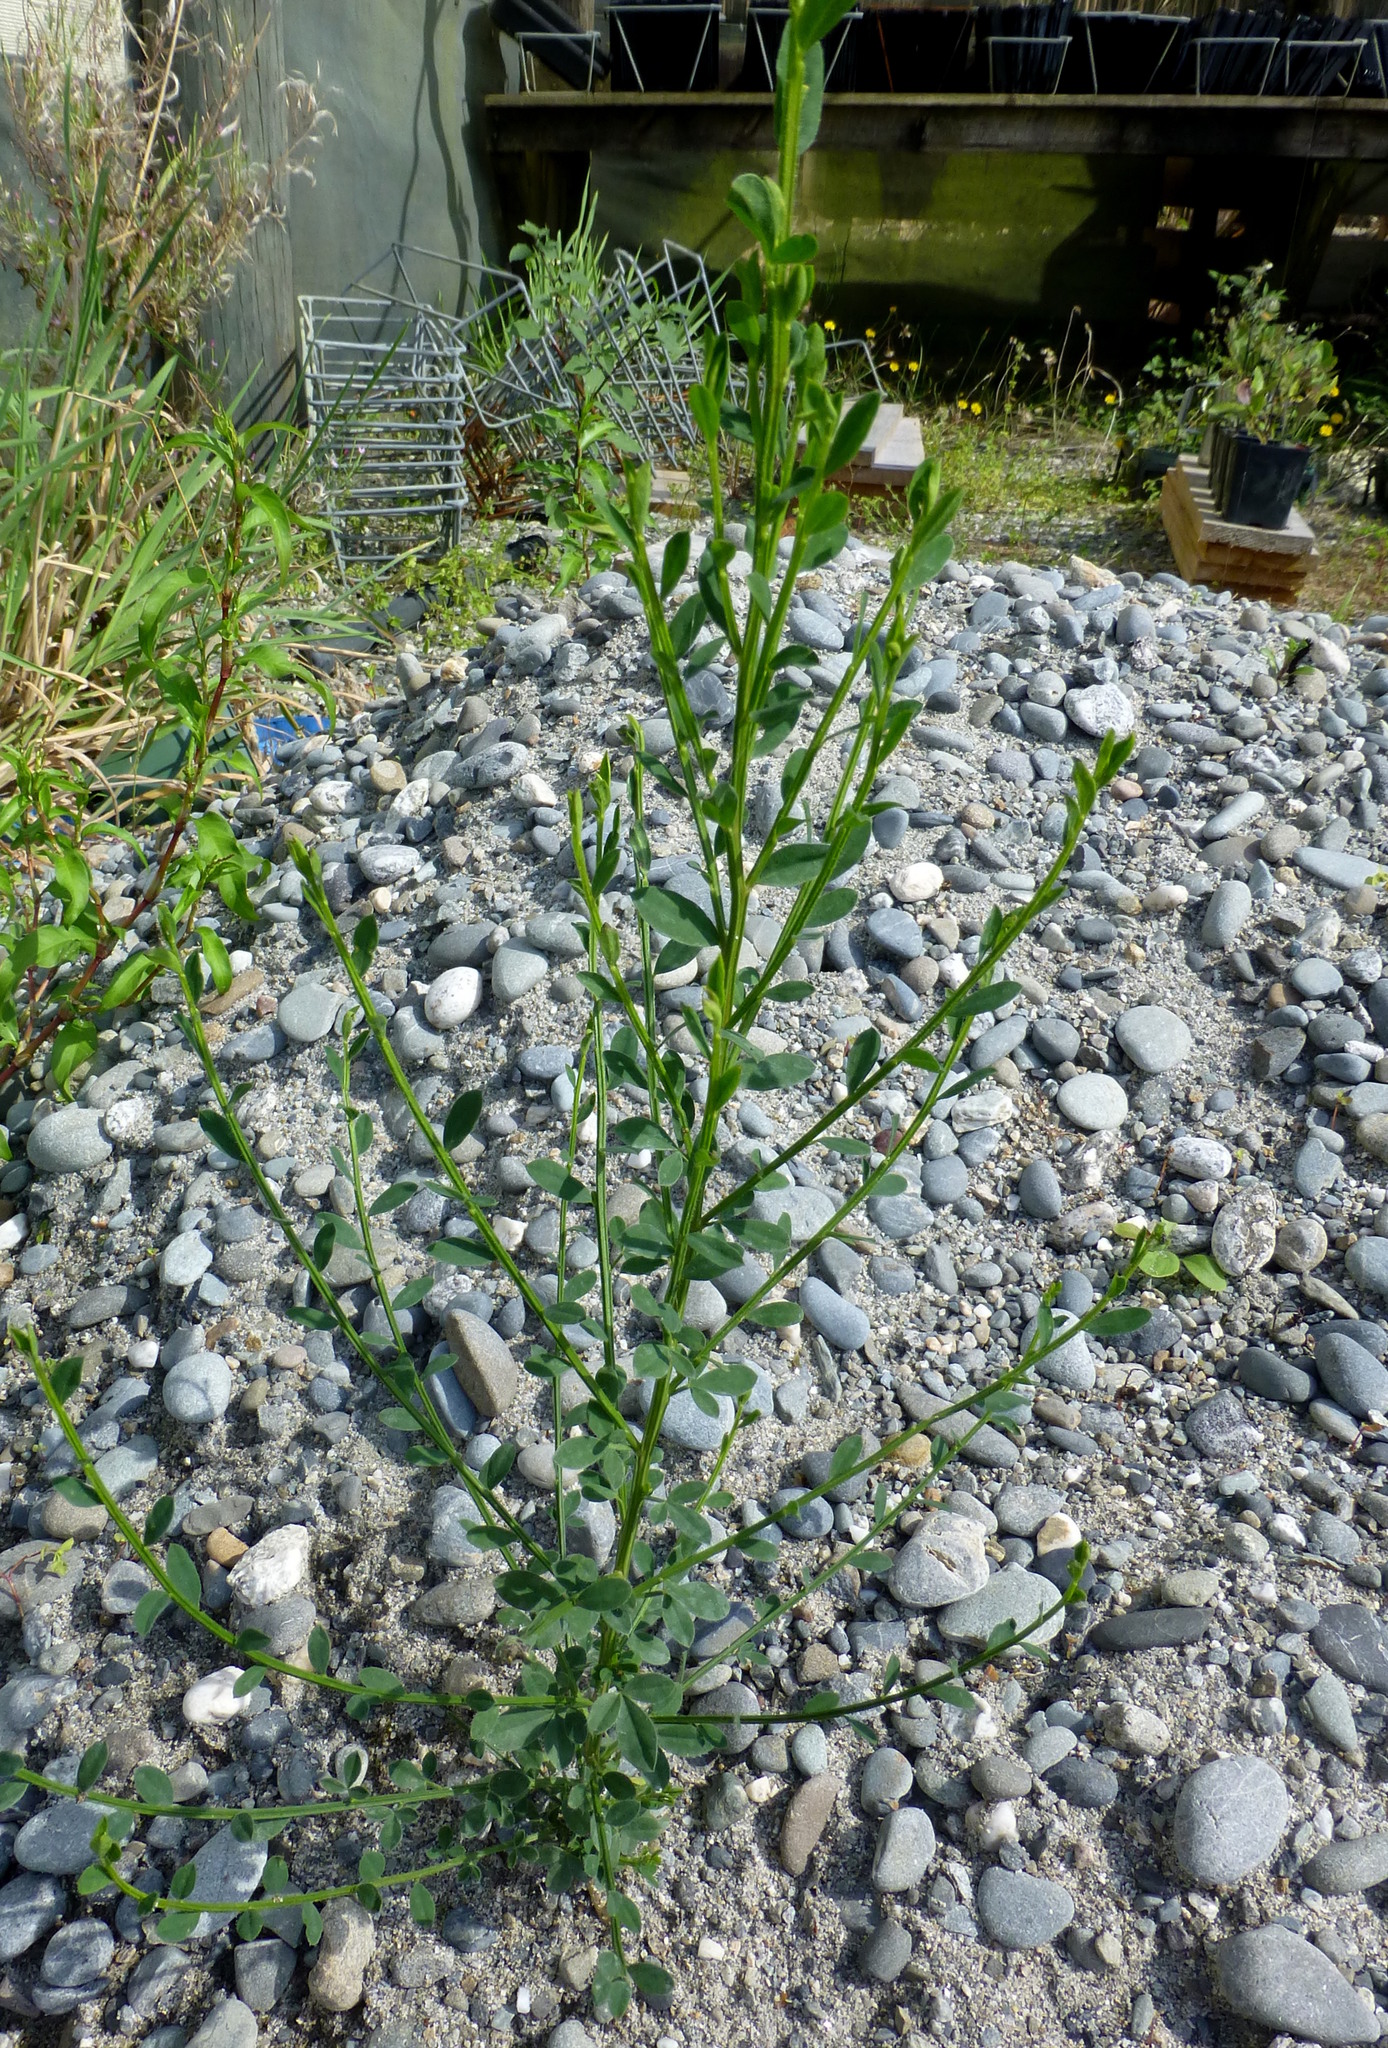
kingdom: Plantae
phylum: Tracheophyta
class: Magnoliopsida
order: Fabales
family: Fabaceae
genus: Cytisus
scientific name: Cytisus scoparius
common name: Scotch broom
